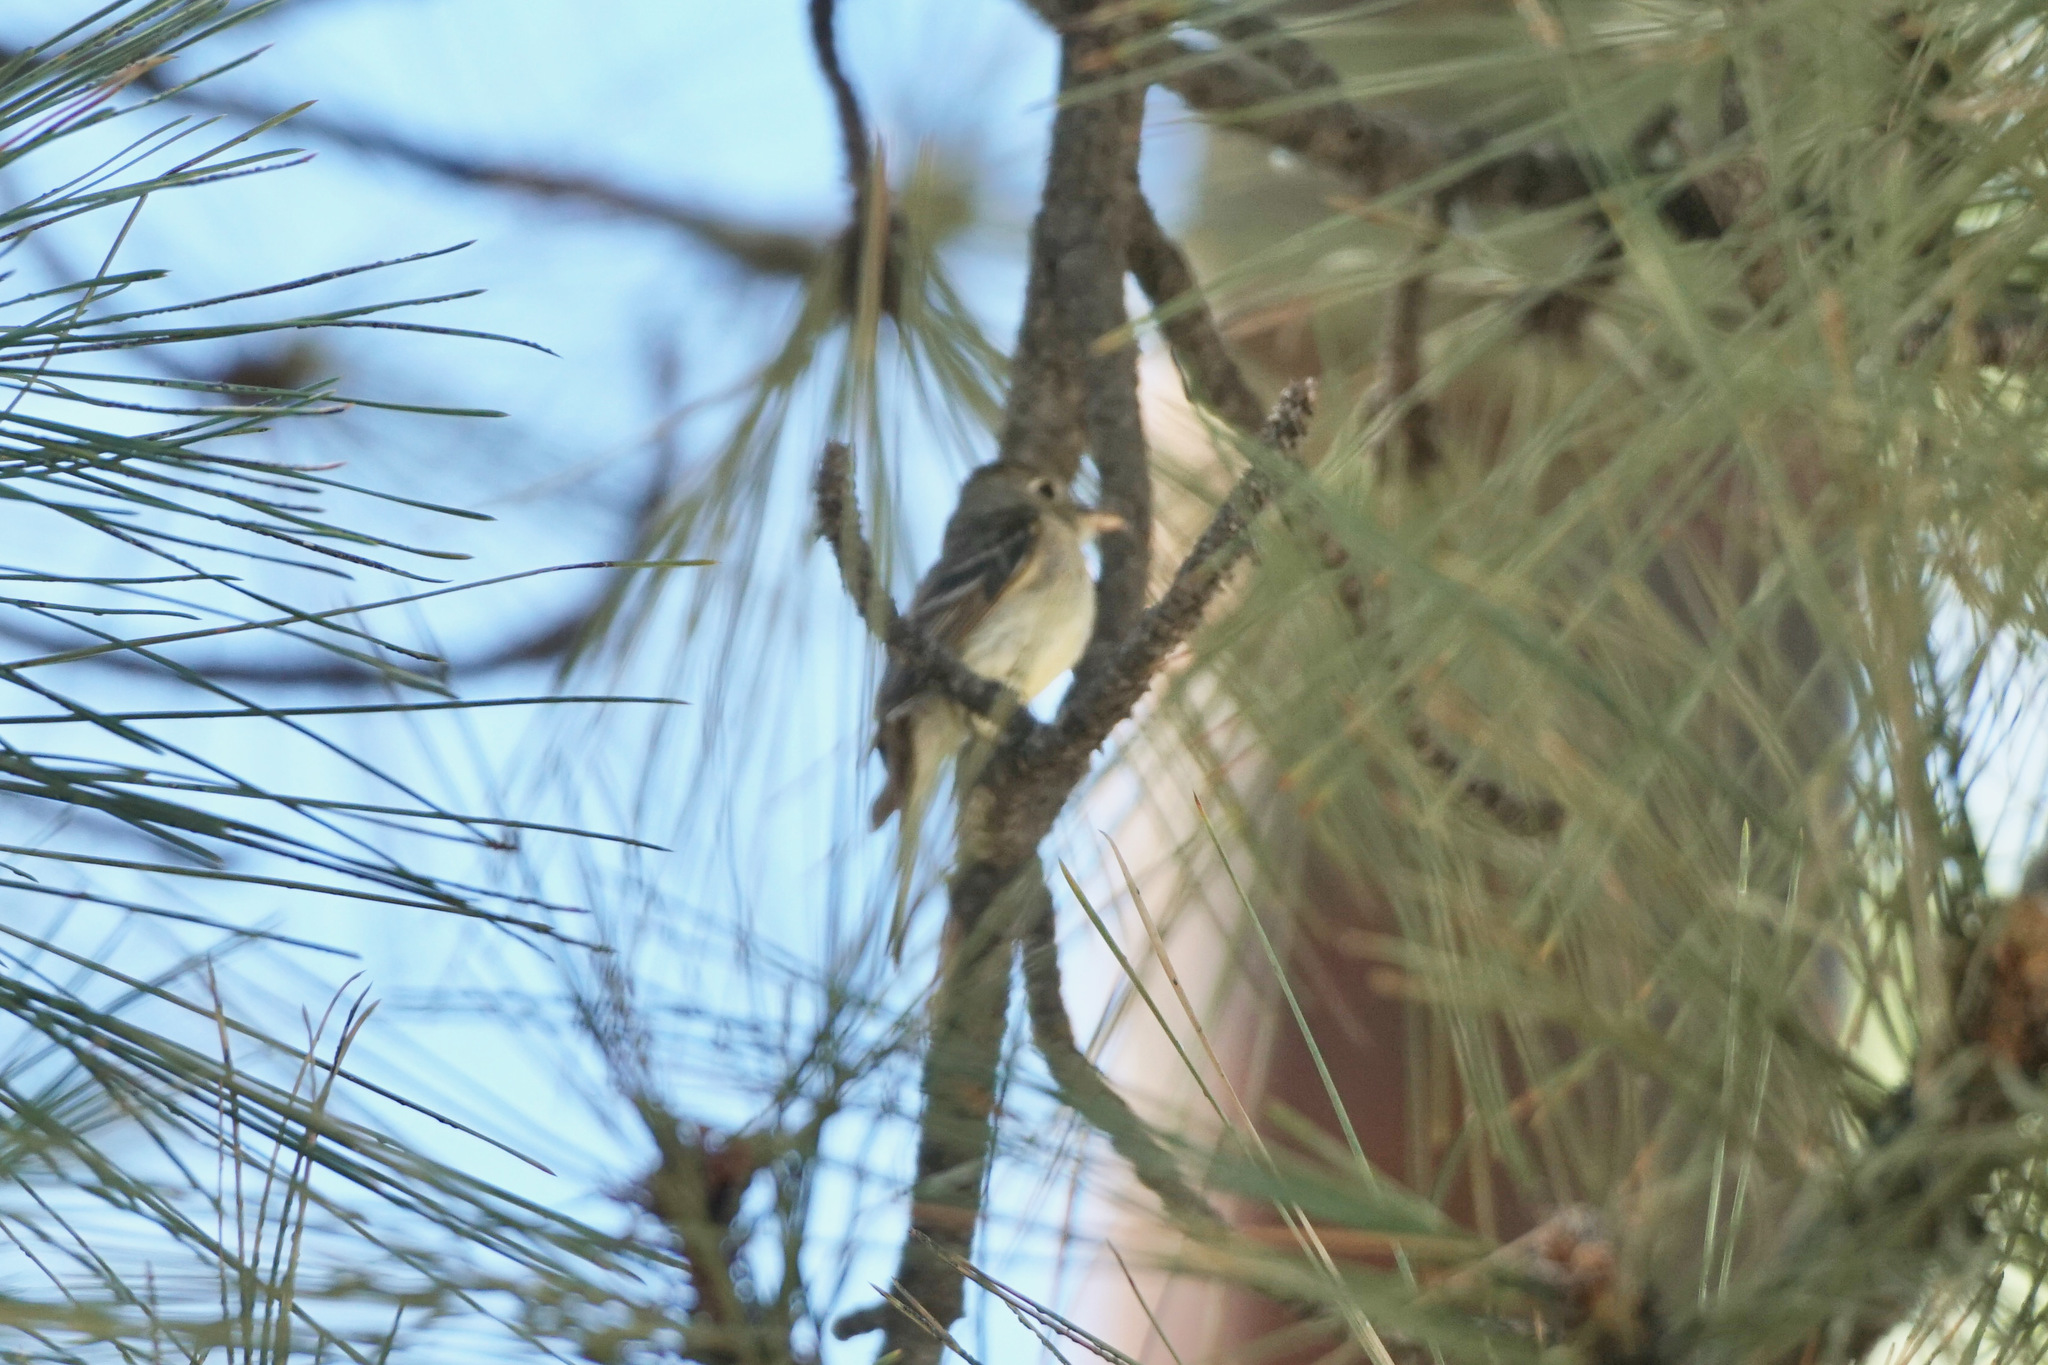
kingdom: Animalia
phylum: Chordata
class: Aves
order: Passeriformes
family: Tyrannidae
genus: Empidonax
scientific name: Empidonax difficilis
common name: Pacific-slope flycatcher
